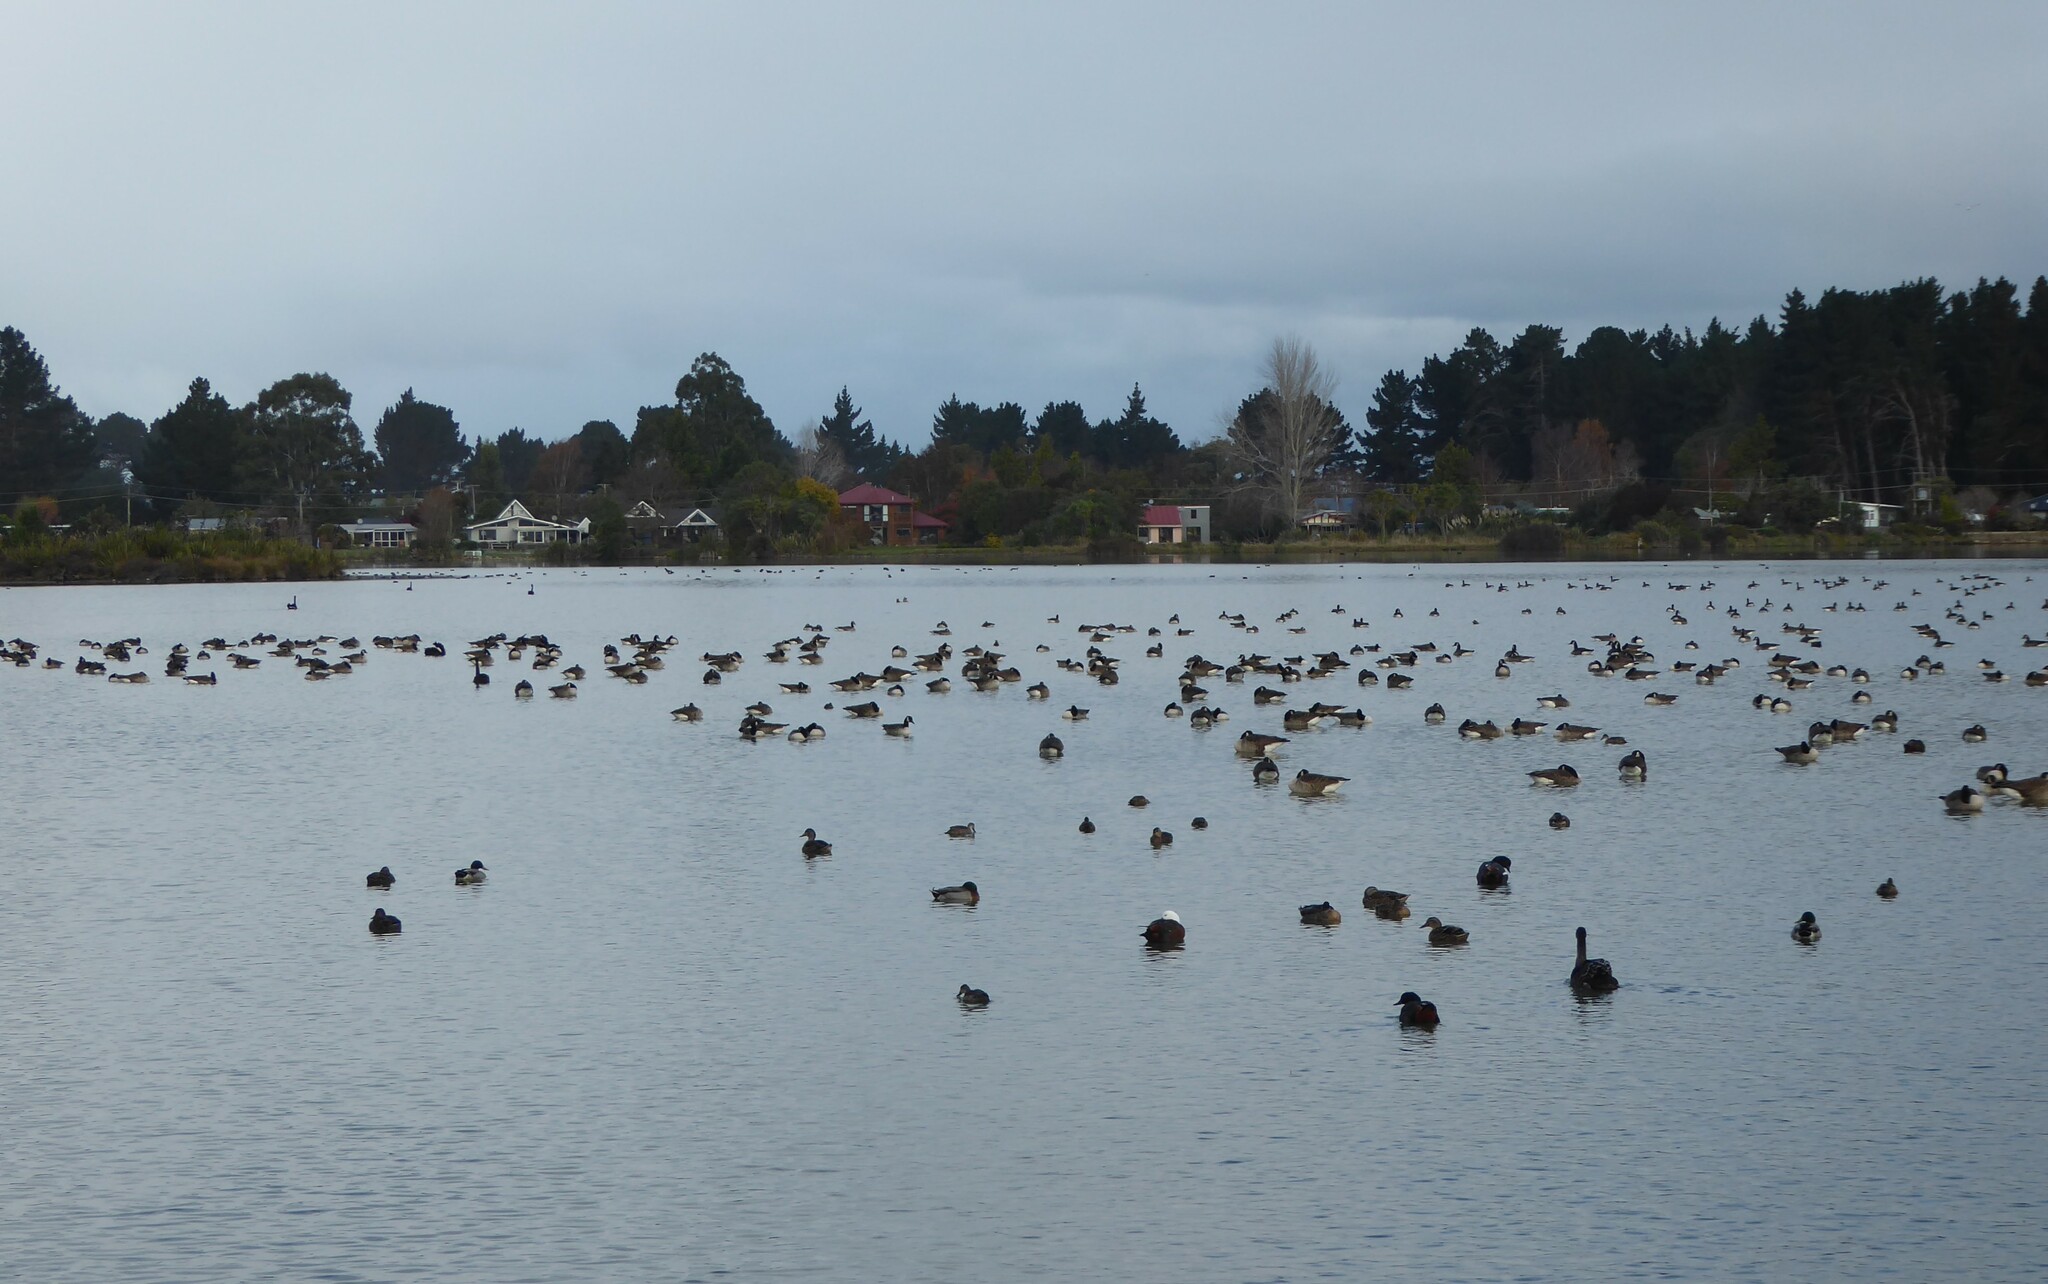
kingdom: Animalia
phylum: Chordata
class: Aves
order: Anseriformes
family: Anatidae
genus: Branta
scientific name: Branta canadensis
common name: Canada goose
